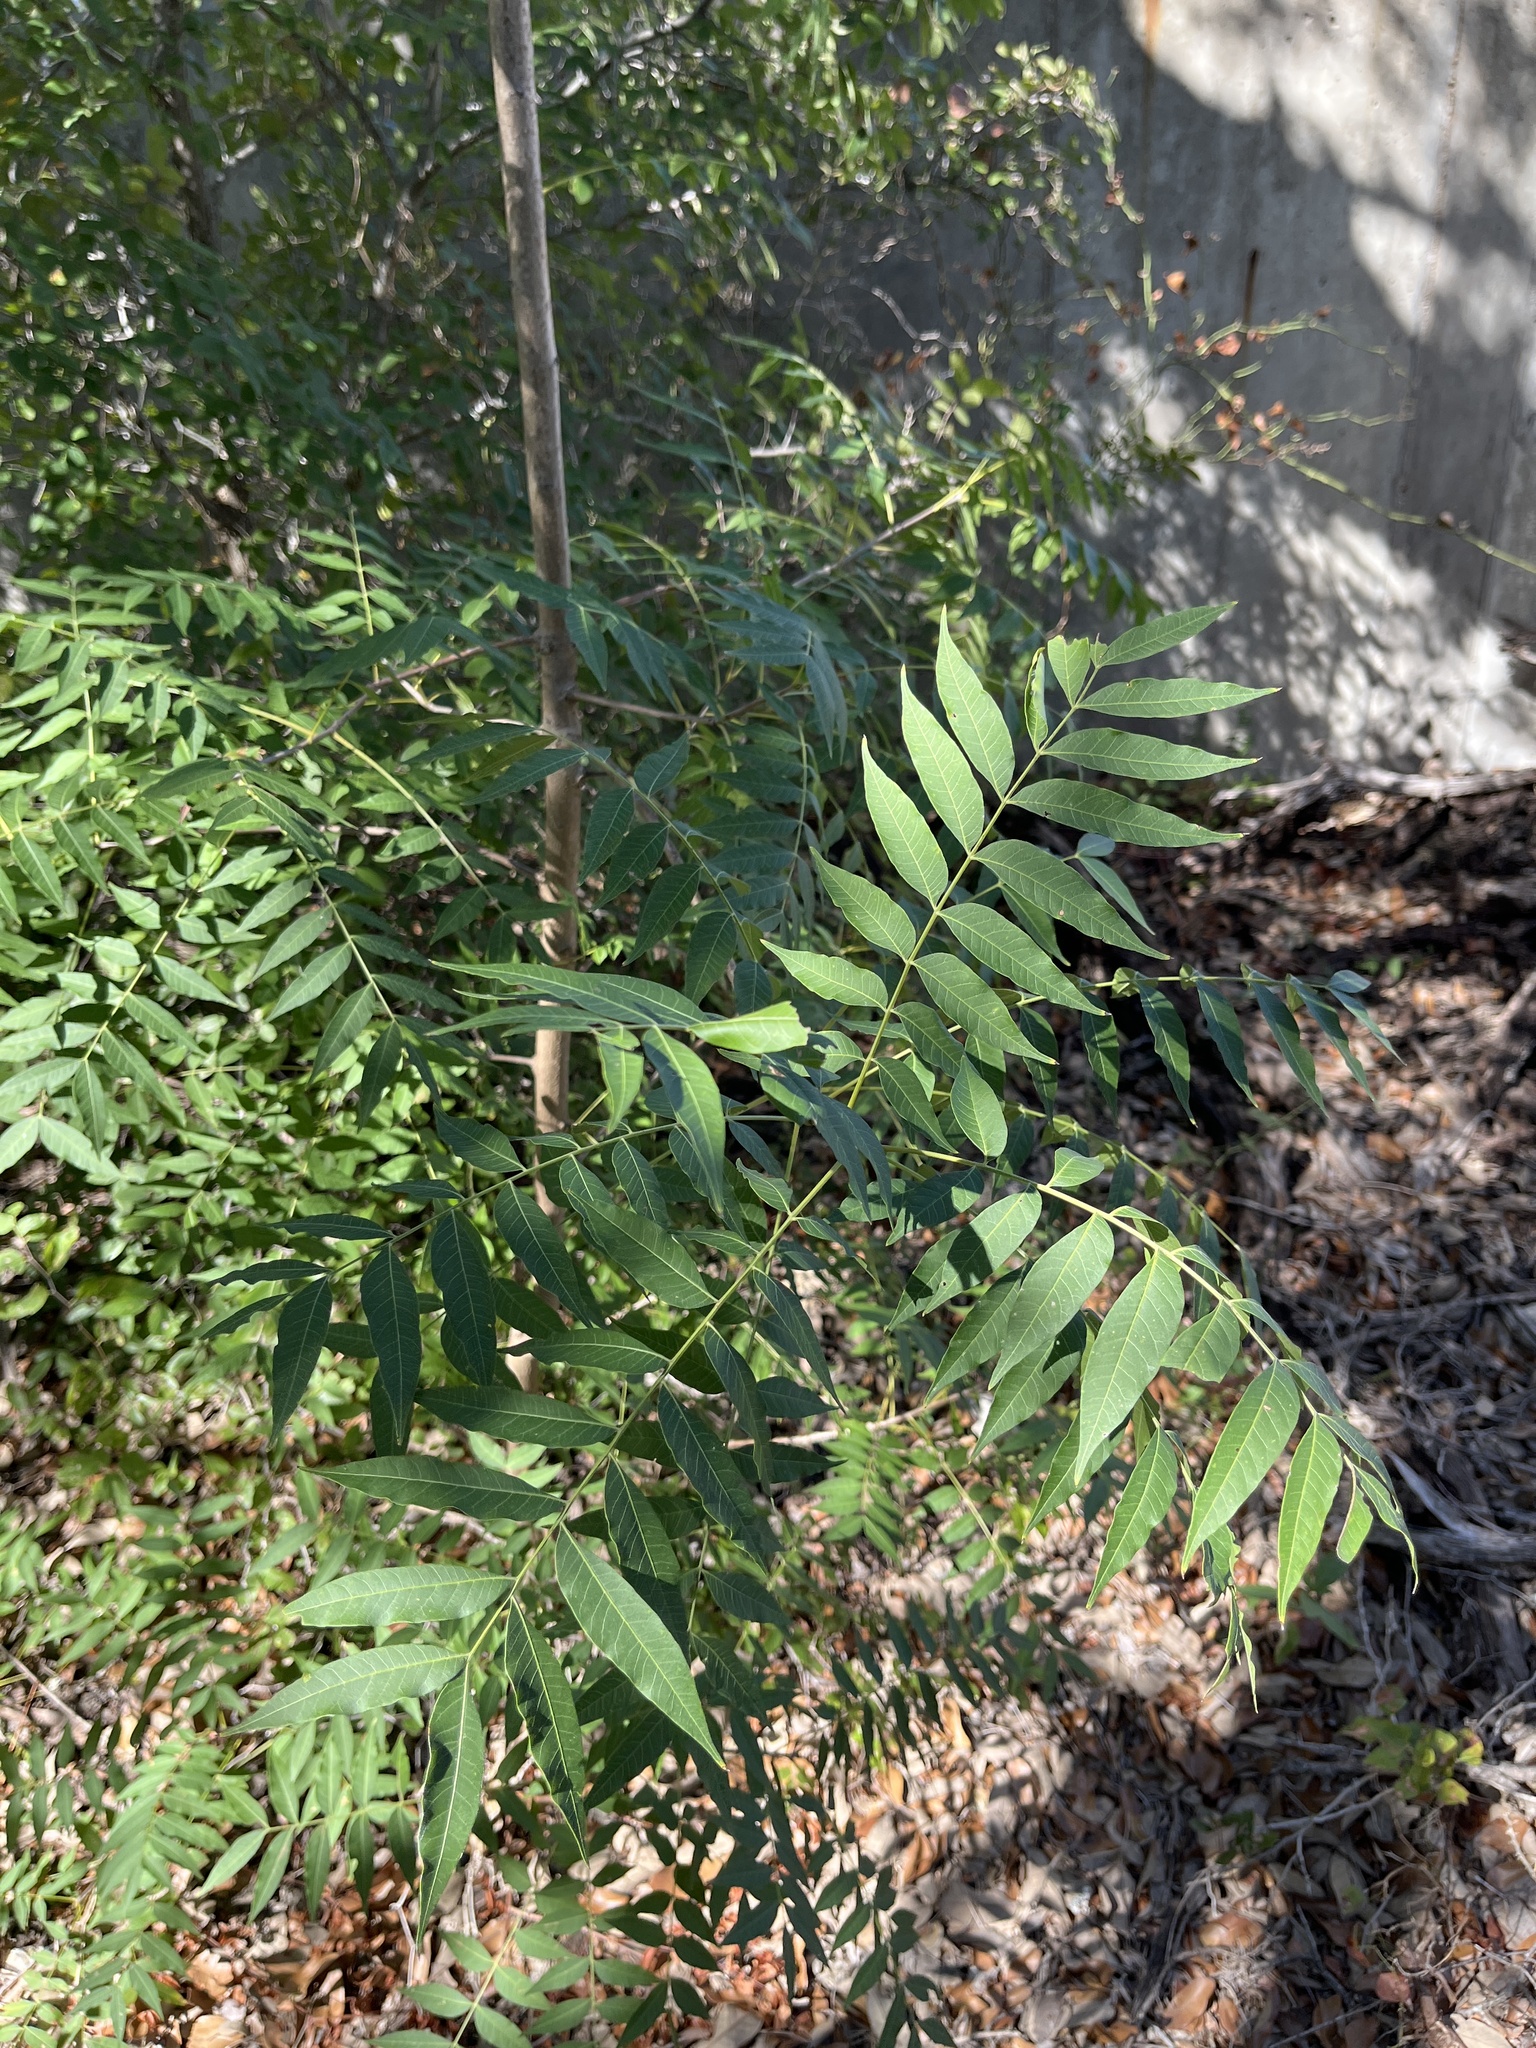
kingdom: Plantae
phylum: Tracheophyta
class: Magnoliopsida
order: Sapindales
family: Anacardiaceae
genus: Pistacia
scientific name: Pistacia chinensis
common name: Chinese pistache
